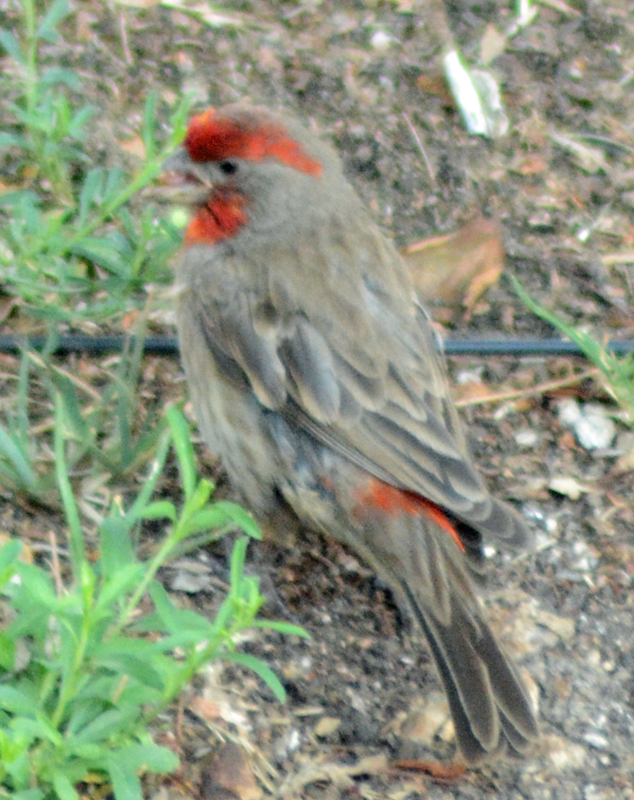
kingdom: Animalia
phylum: Chordata
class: Aves
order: Passeriformes
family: Fringillidae
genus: Haemorhous
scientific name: Haemorhous mexicanus
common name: House finch
